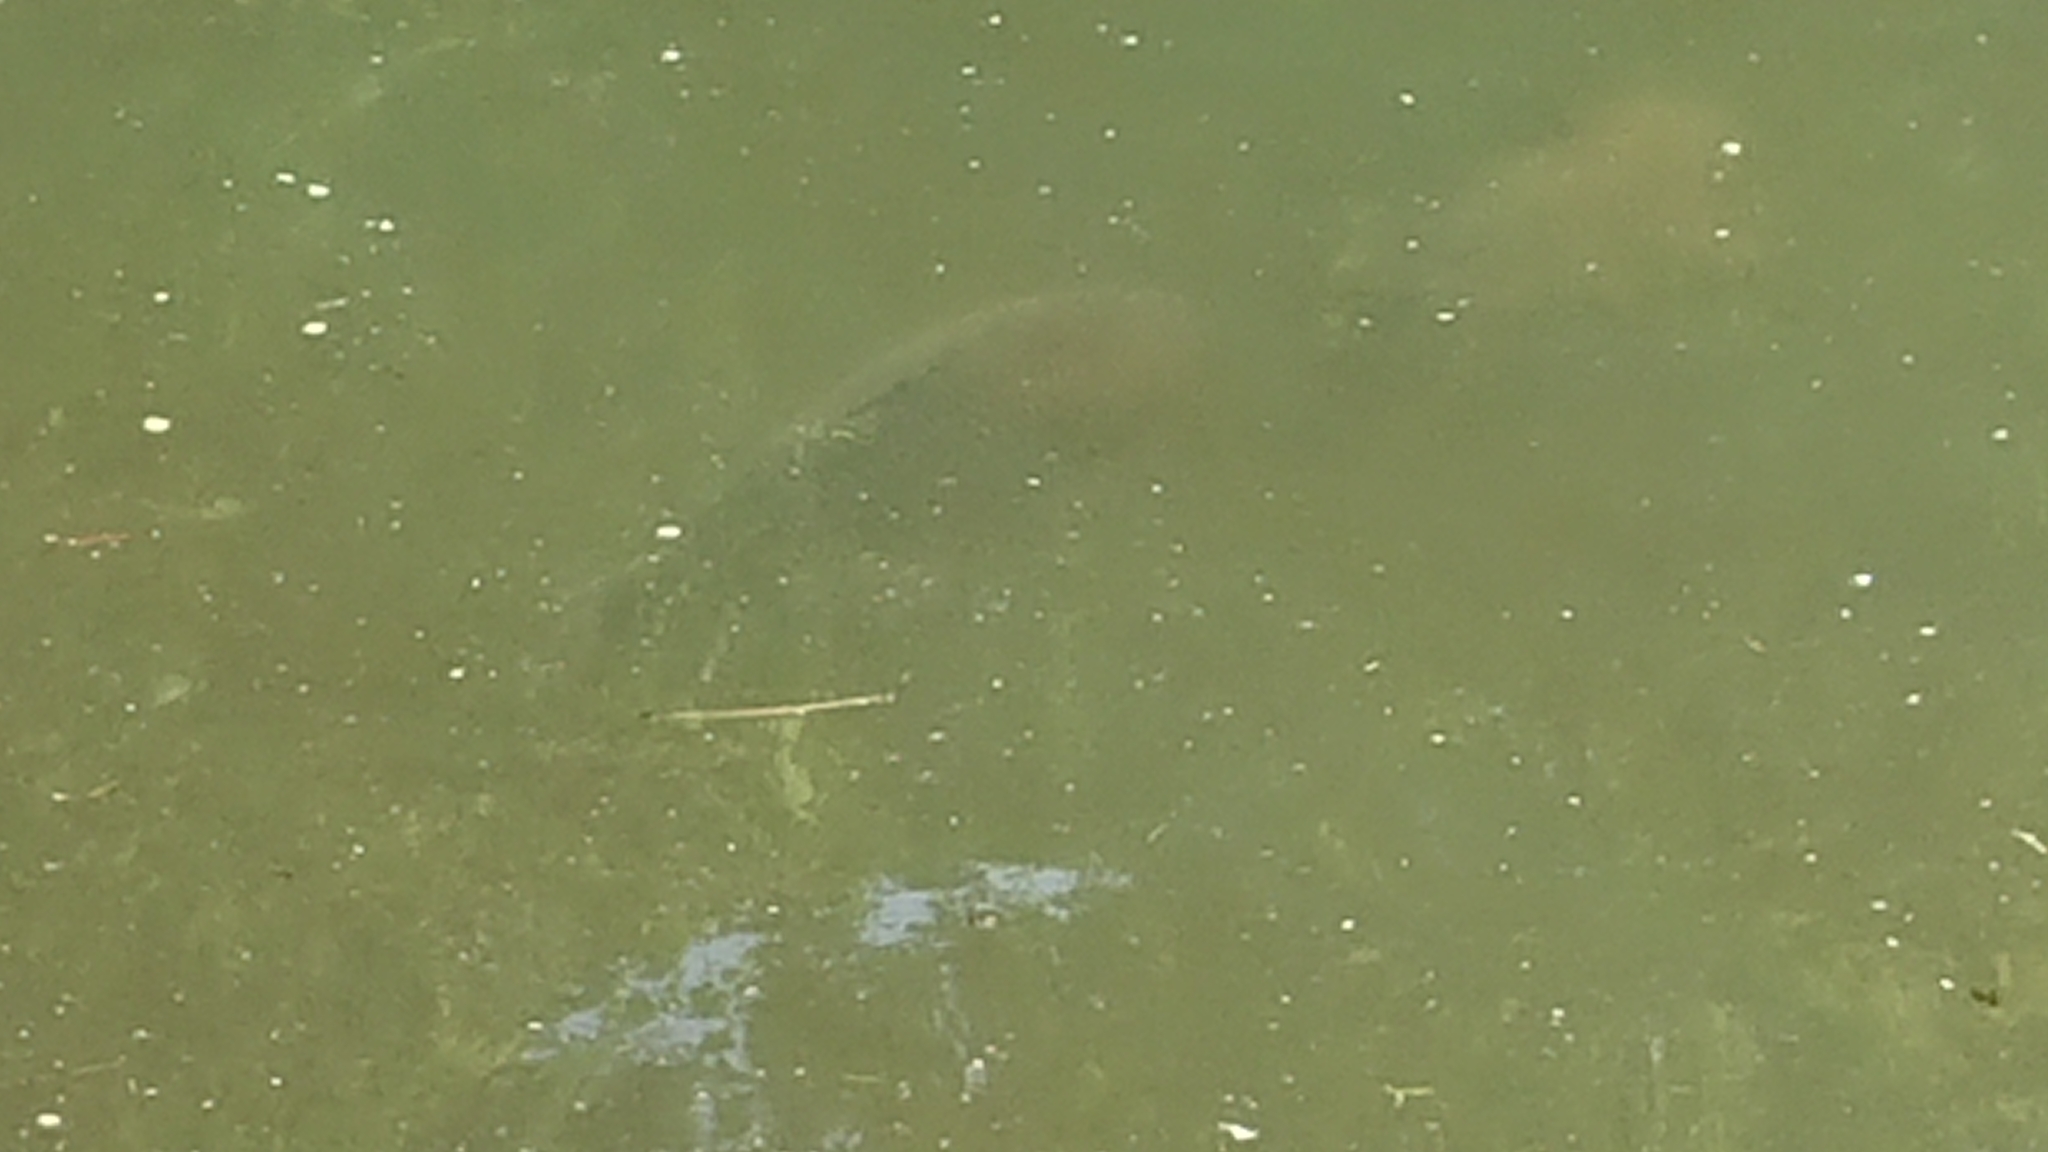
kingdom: Animalia
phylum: Chordata
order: Cypriniformes
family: Cyprinidae
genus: Cyprinus
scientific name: Cyprinus carpio
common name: Common carp
